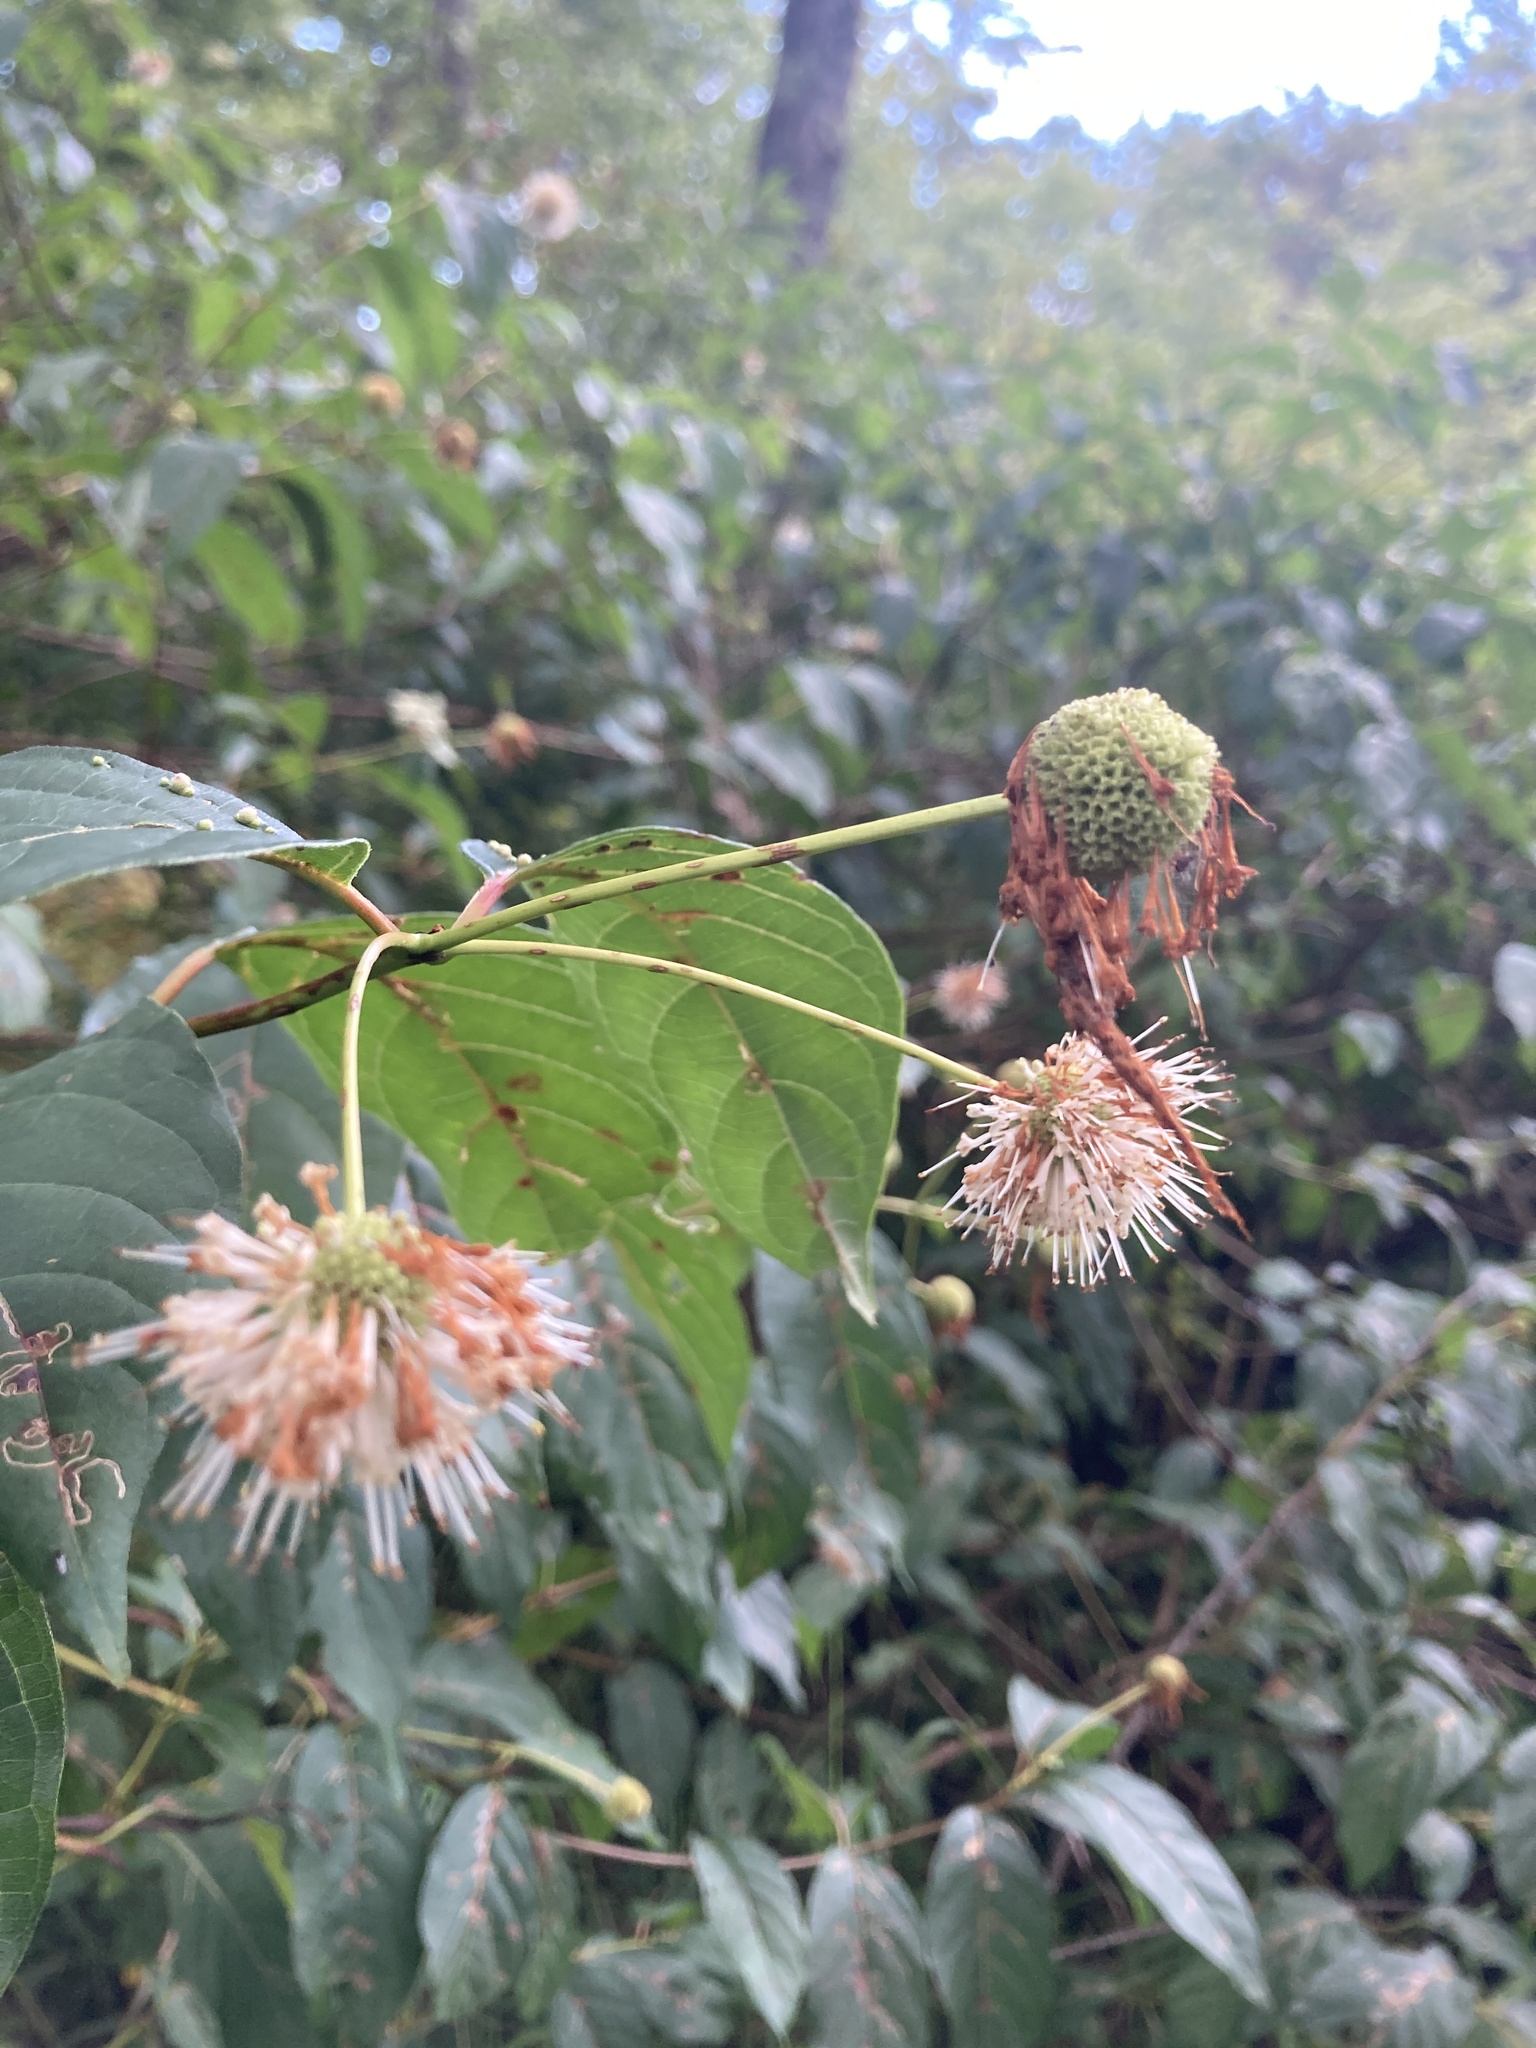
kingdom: Plantae
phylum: Tracheophyta
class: Magnoliopsida
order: Gentianales
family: Rubiaceae
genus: Cephalanthus
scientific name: Cephalanthus occidentalis
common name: Button-willow
